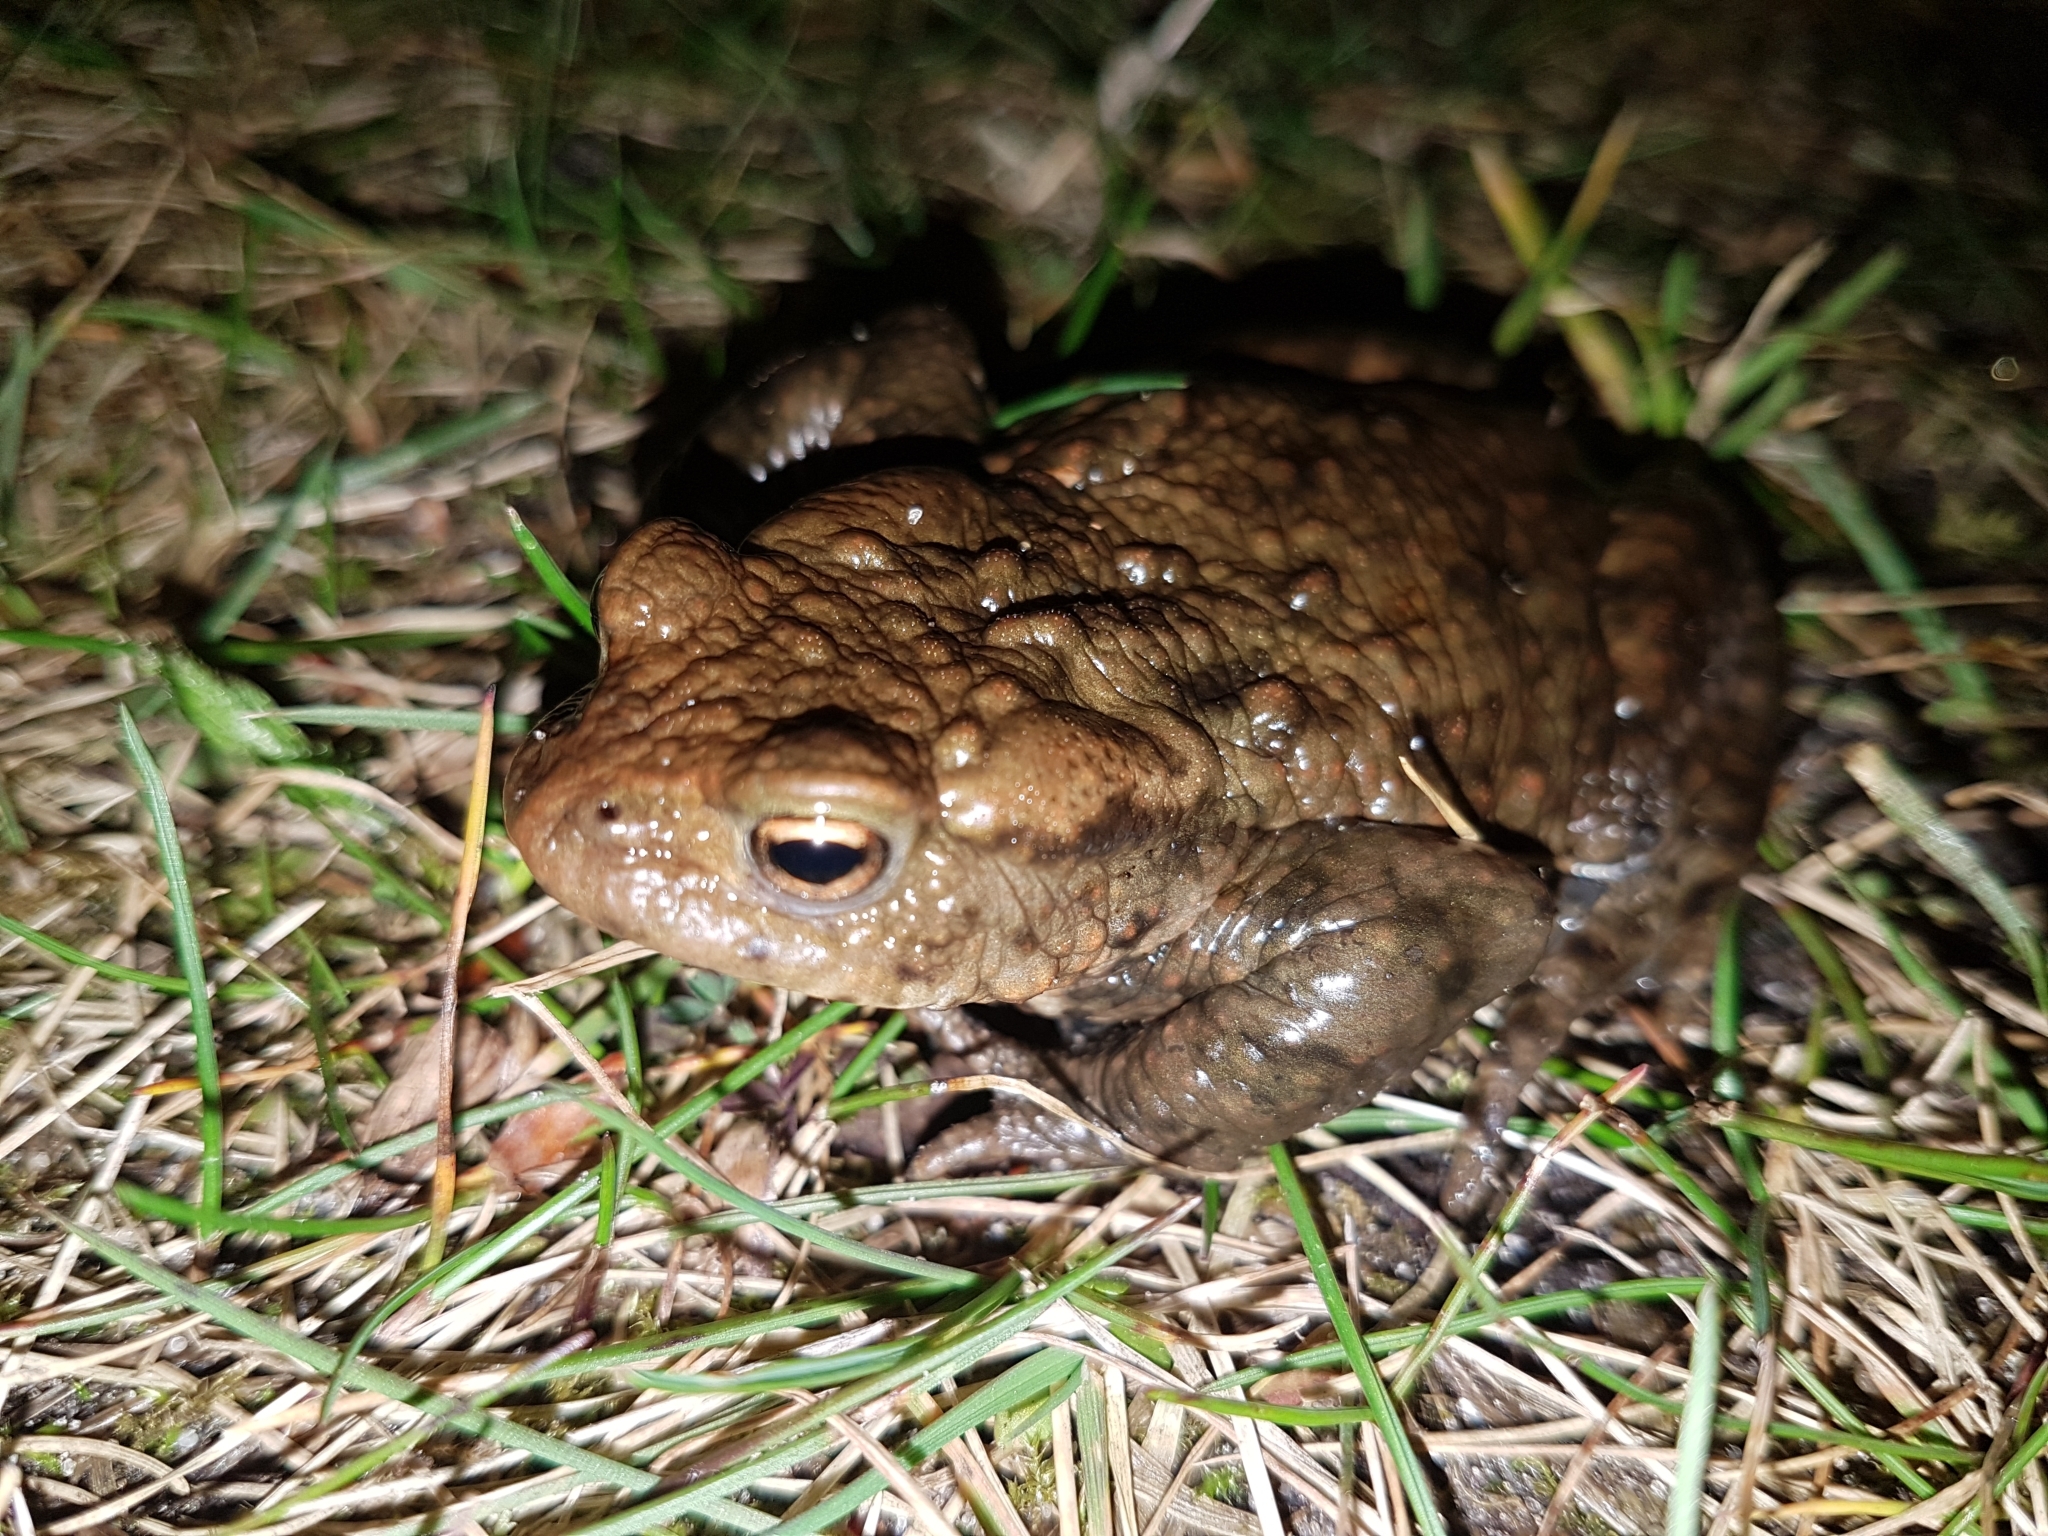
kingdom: Animalia
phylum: Chordata
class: Amphibia
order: Anura
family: Bufonidae
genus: Bufo
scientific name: Bufo bufo
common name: Common toad
